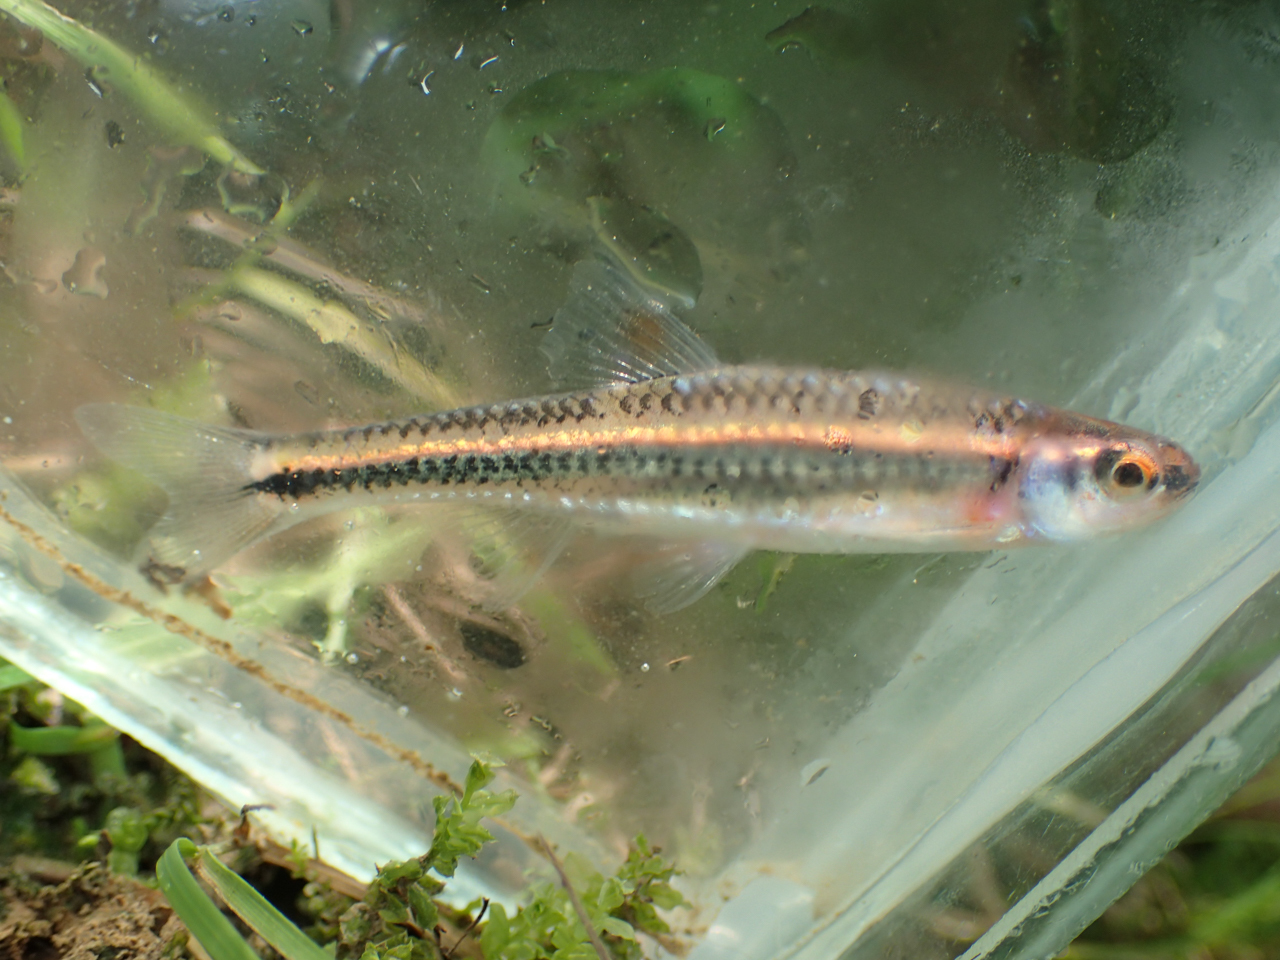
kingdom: Animalia
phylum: Chordata
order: Cypriniformes
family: Cyprinidae
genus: Notropis
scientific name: Notropis
